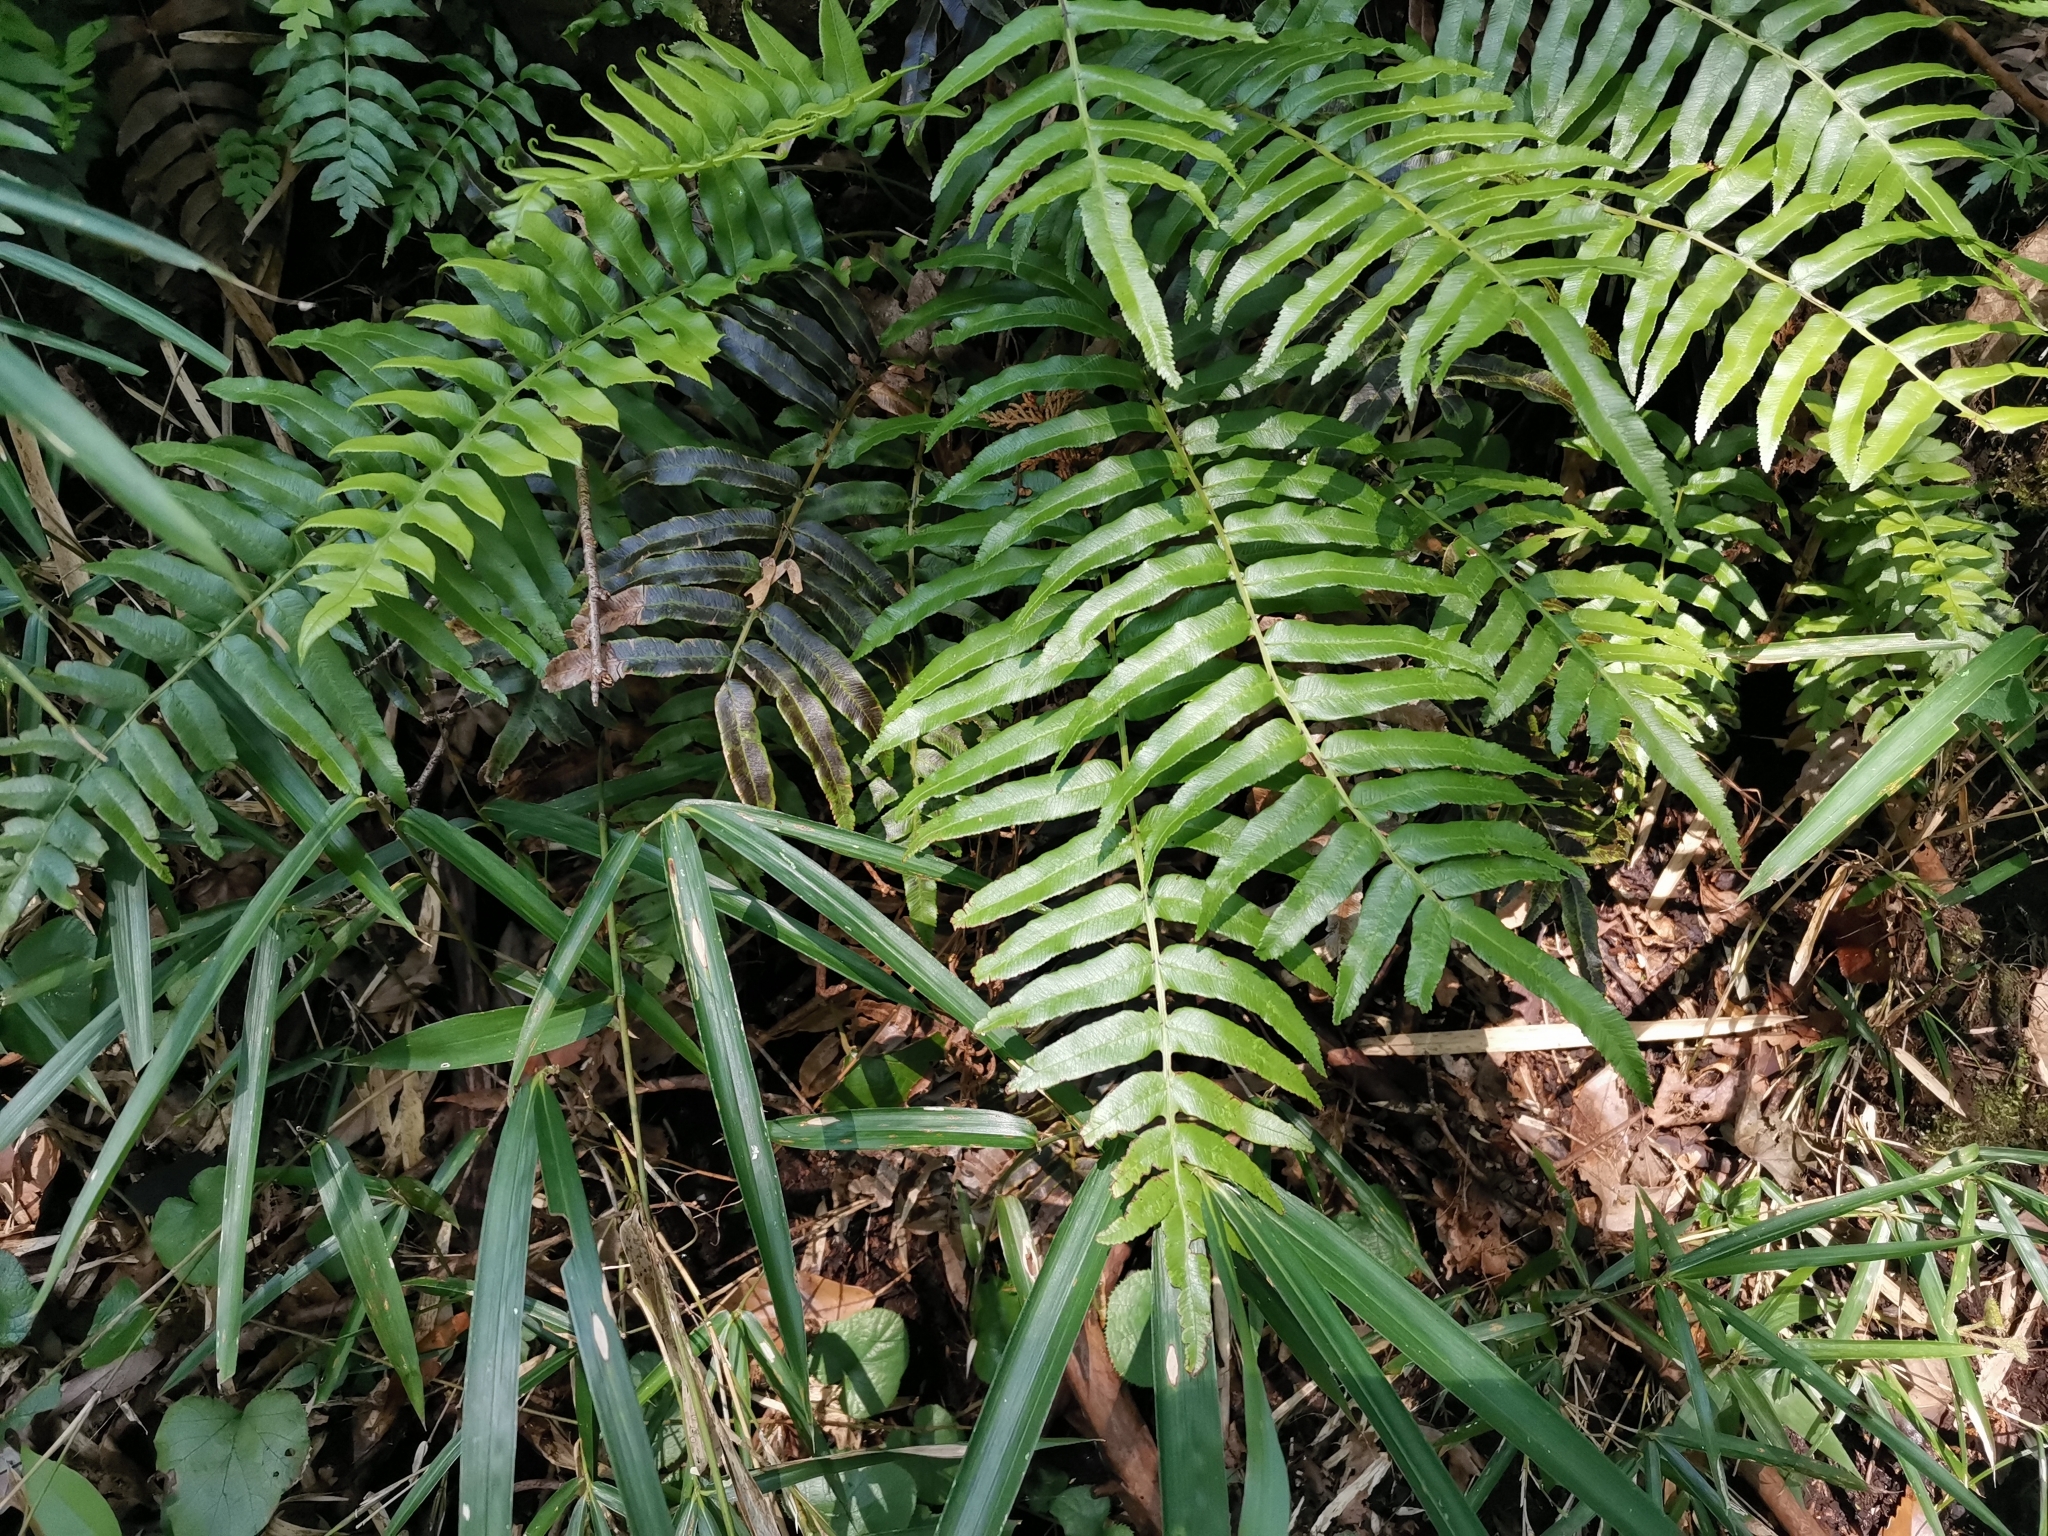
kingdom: Plantae
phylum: Tracheophyta
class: Polypodiopsida
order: Cyatheales
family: Plagiogyriaceae
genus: Plagiogyria
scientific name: Plagiogyria japonica
